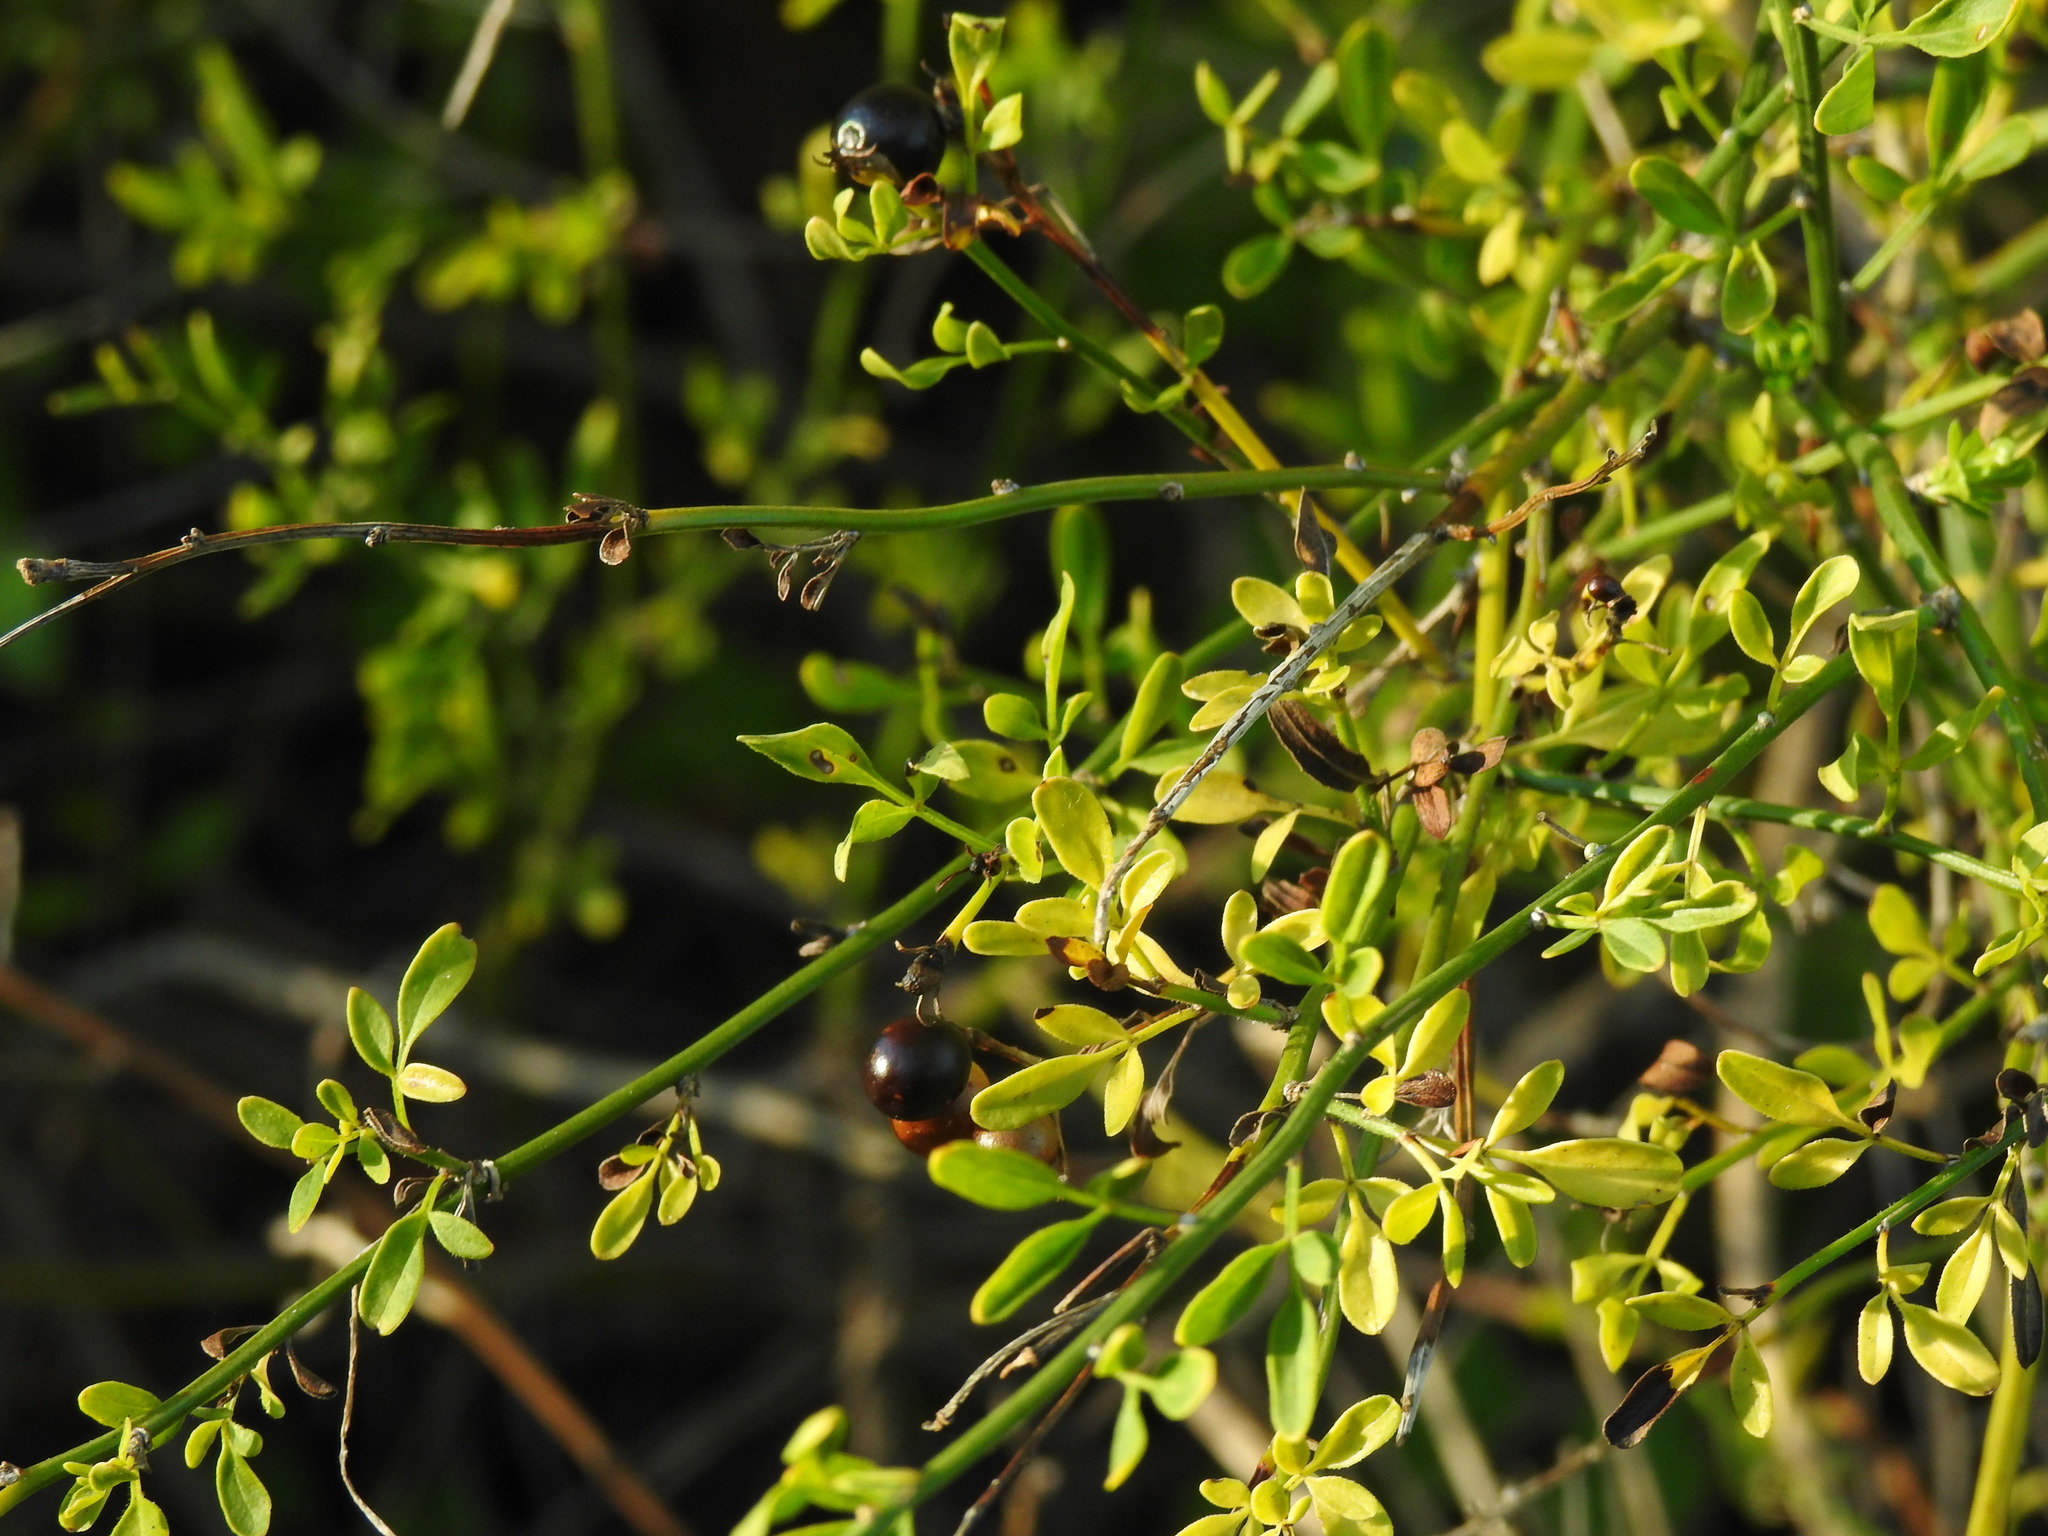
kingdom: Plantae
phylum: Tracheophyta
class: Magnoliopsida
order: Lamiales
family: Oleaceae
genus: Chrysojasminum
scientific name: Chrysojasminum fruticans
